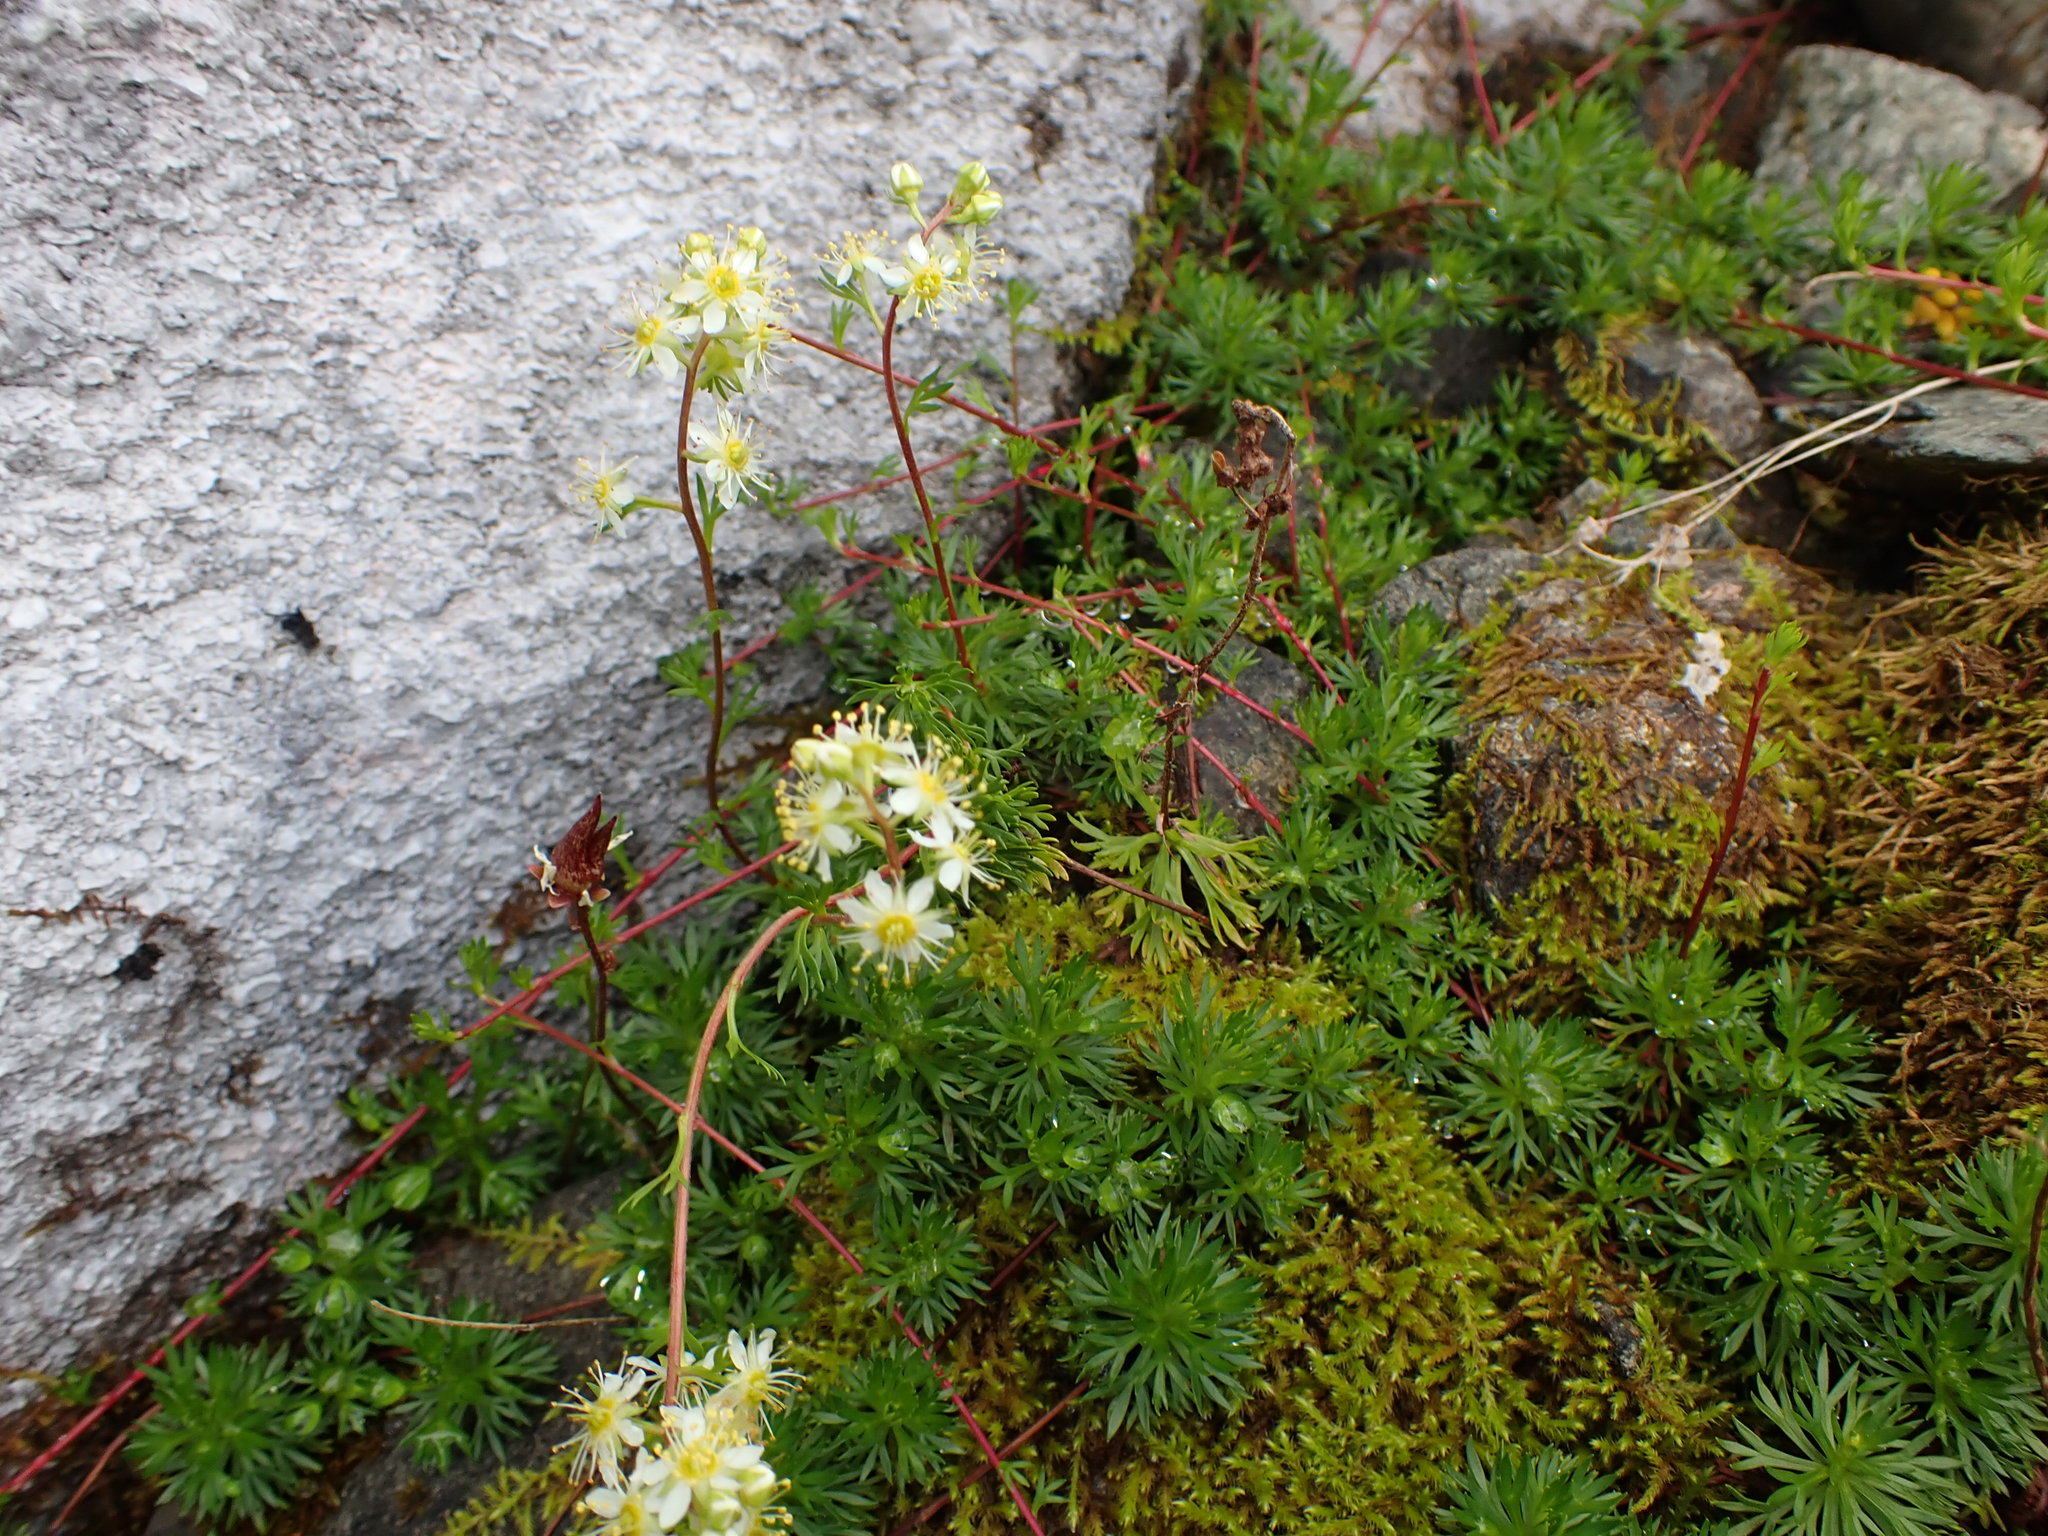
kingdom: Plantae
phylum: Tracheophyta
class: Magnoliopsida
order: Rosales
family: Rosaceae
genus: Luetkea
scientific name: Luetkea pectinata
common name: Partridgefoot
